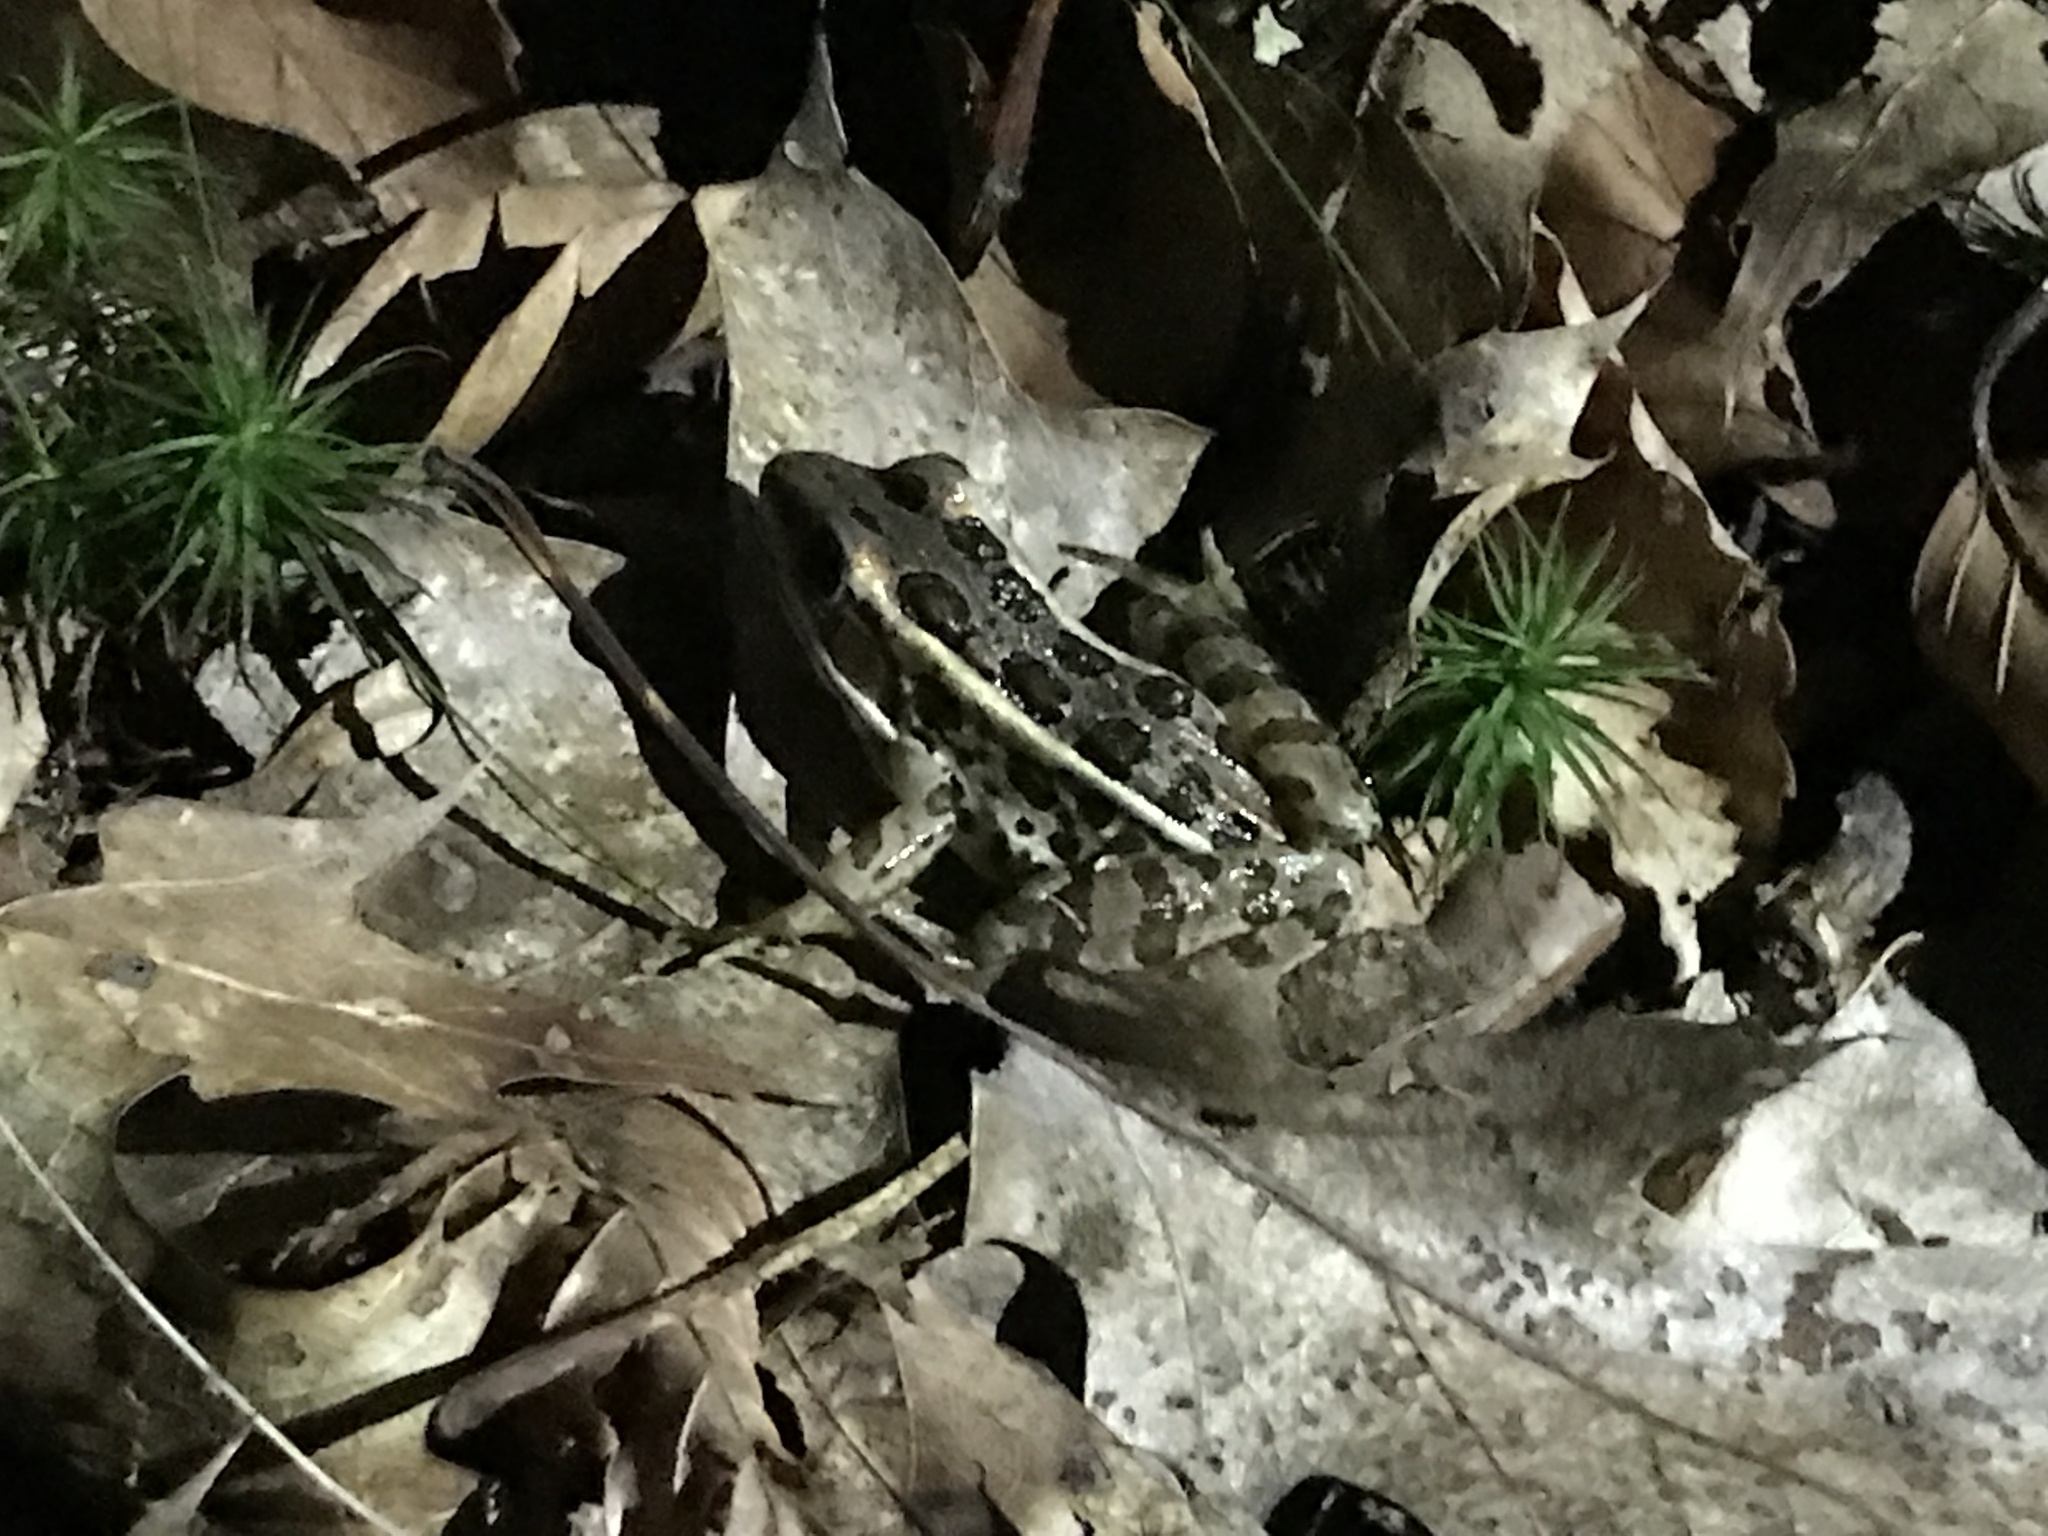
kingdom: Animalia
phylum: Chordata
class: Amphibia
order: Anura
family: Ranidae
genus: Lithobates
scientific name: Lithobates palustris
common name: Pickerel frog
